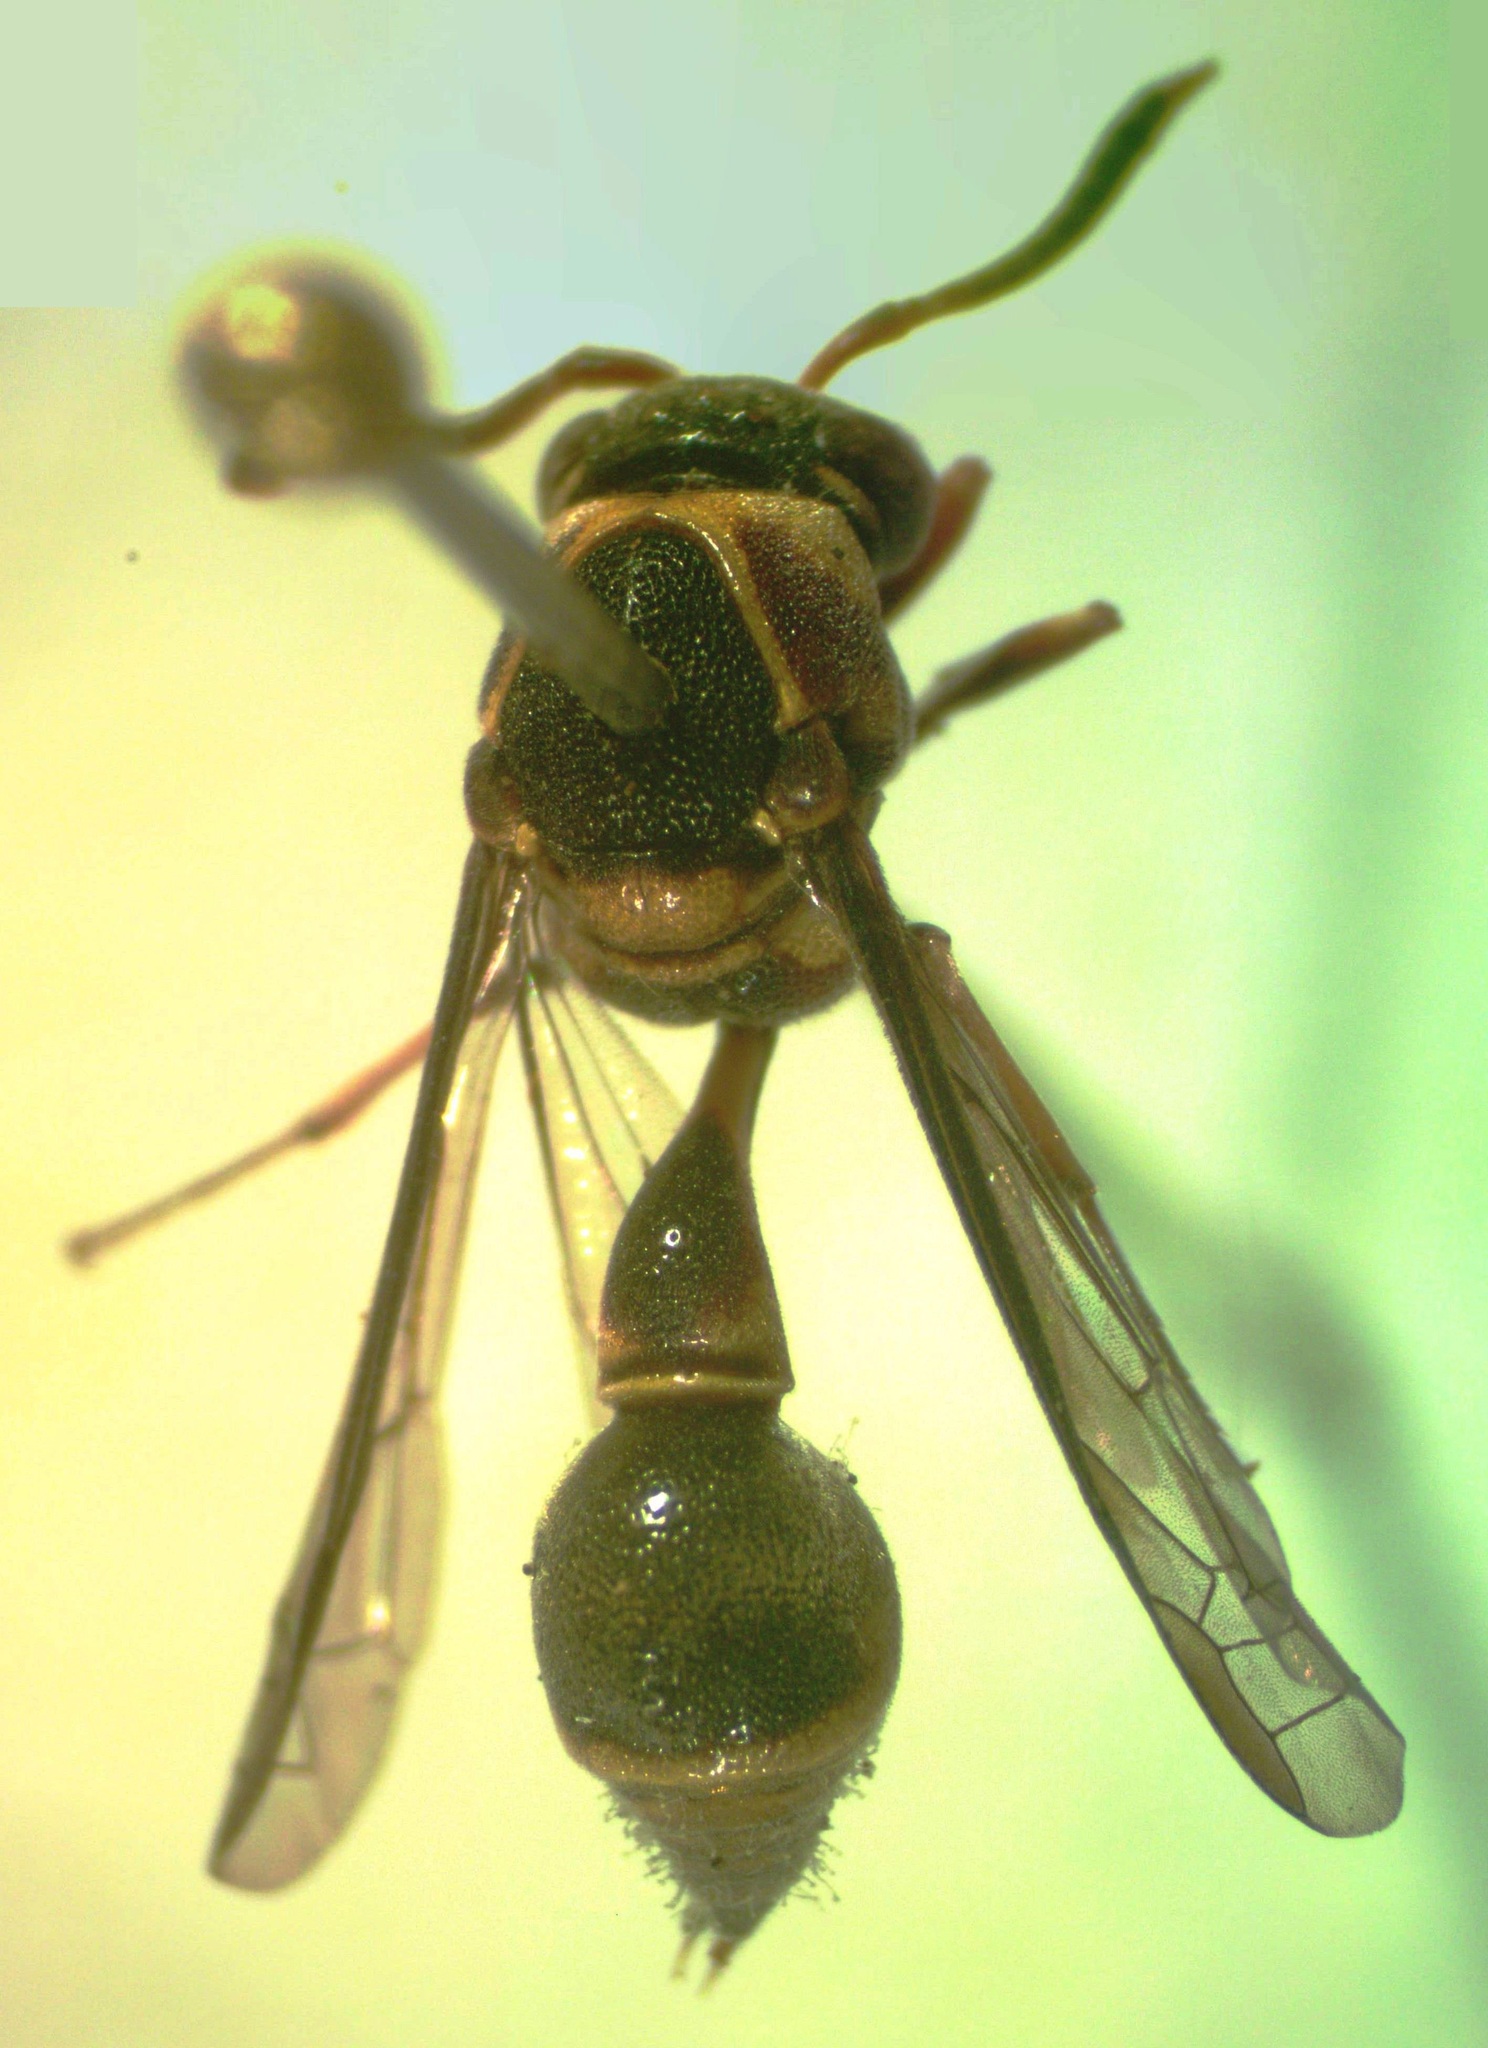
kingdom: Animalia
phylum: Arthropoda
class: Insecta
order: Hymenoptera
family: Eumenidae
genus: Cyphomenes
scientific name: Cyphomenes anisitsii
